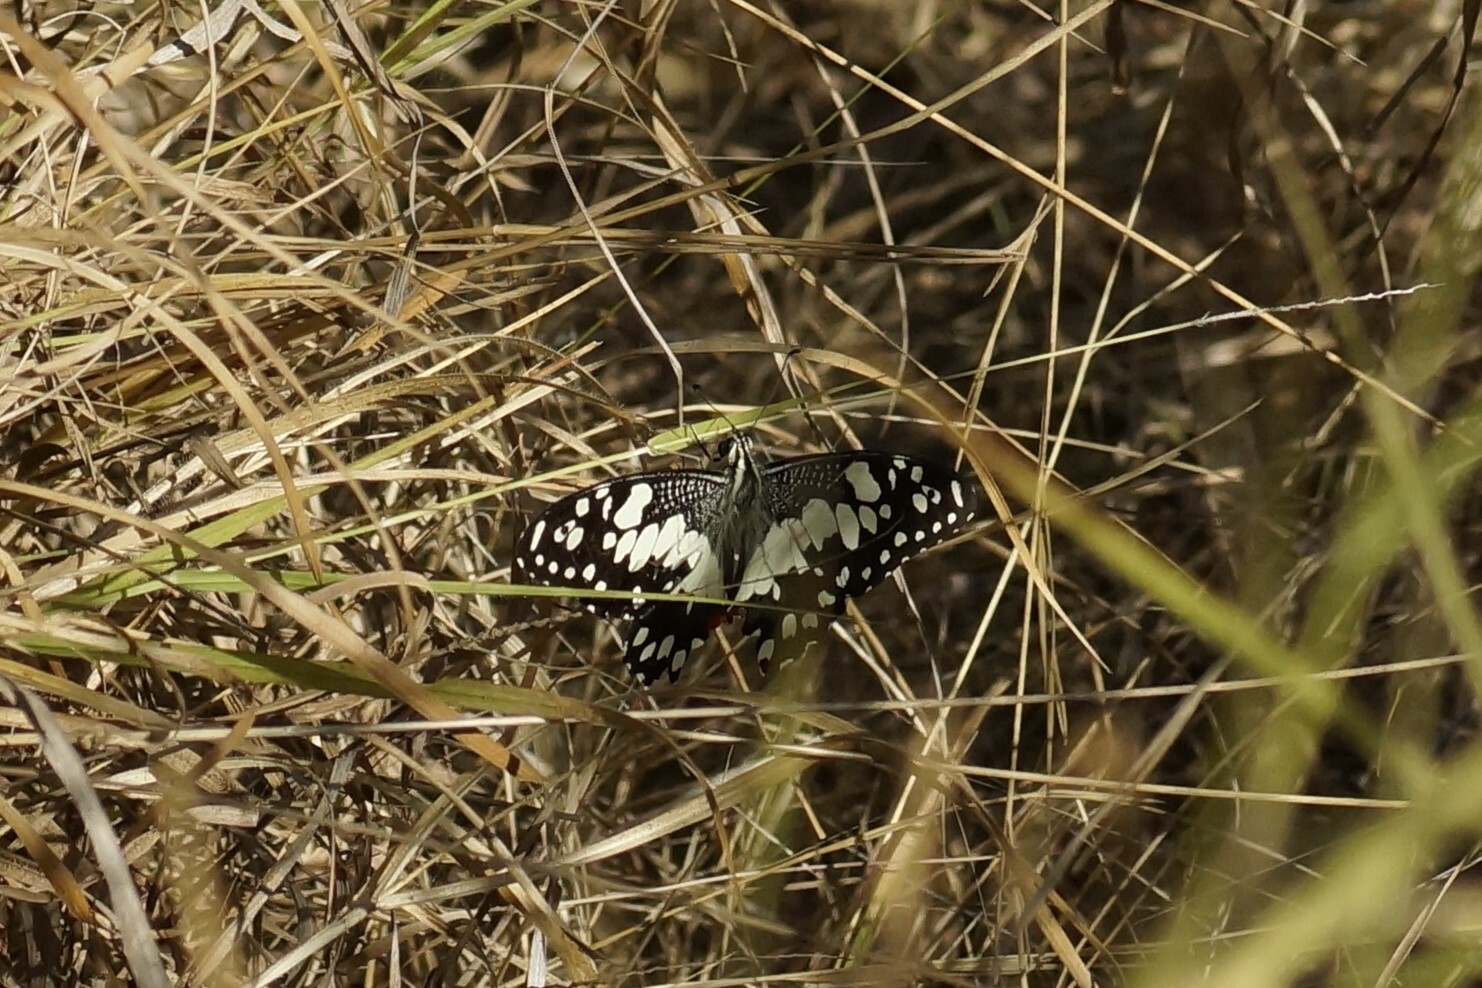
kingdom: Animalia
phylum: Arthropoda
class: Insecta
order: Lepidoptera
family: Papilionidae
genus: Papilio
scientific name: Papilio demoleus
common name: Lime butterfly
